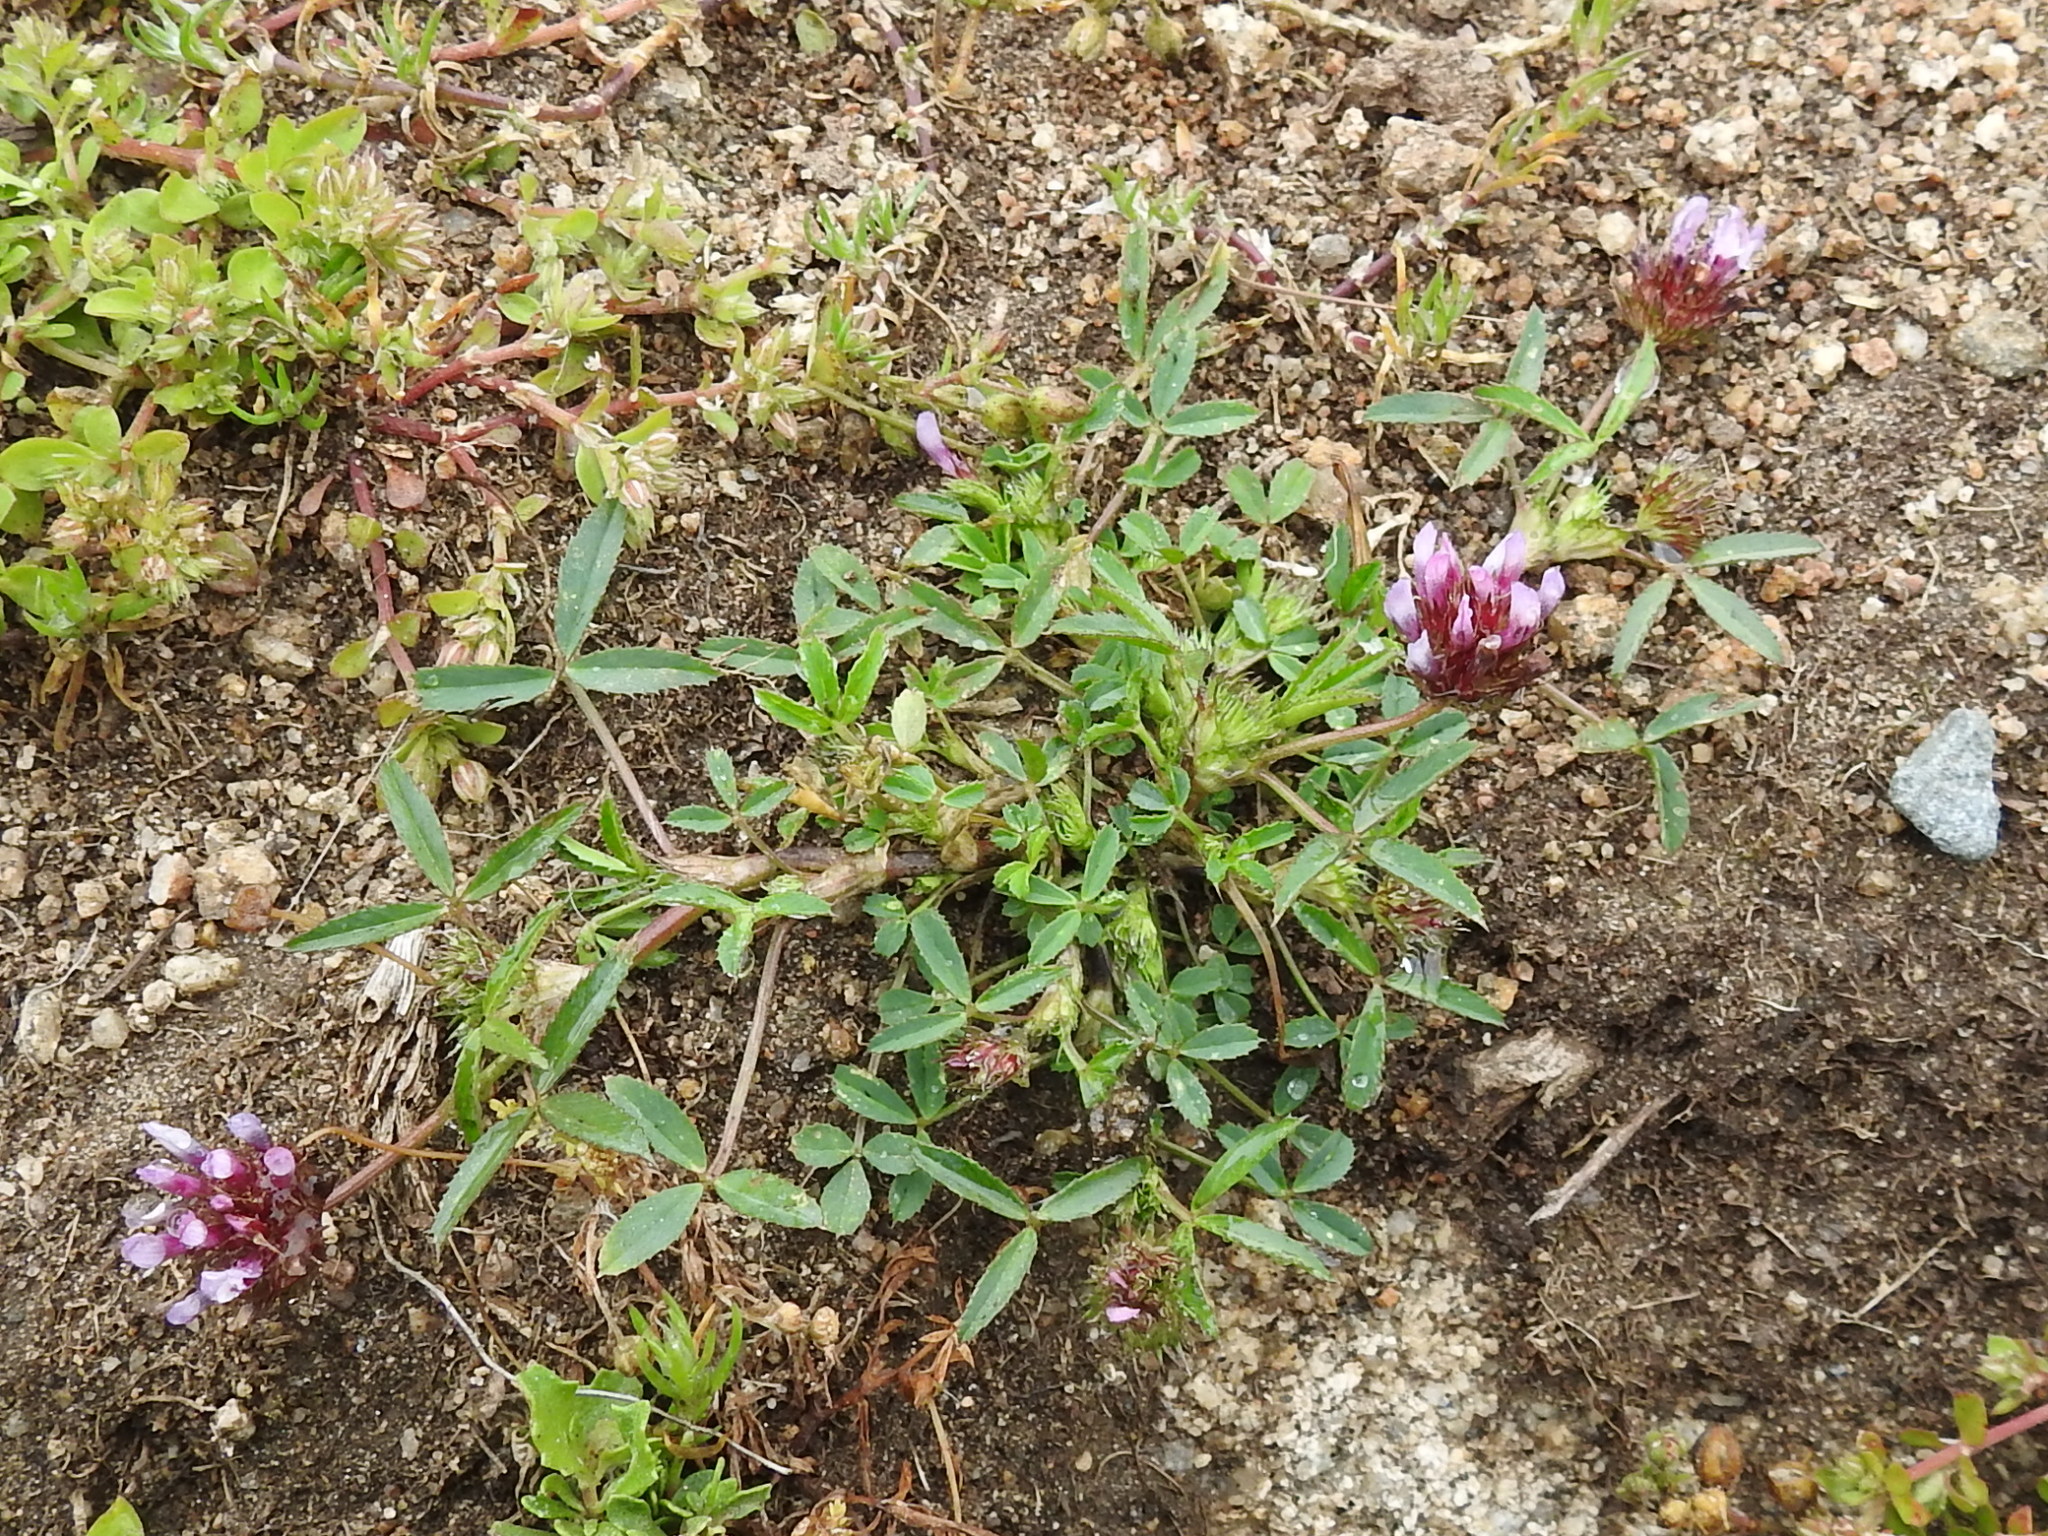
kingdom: Plantae
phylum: Tracheophyta
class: Magnoliopsida
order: Fabales
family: Fabaceae
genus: Trifolium
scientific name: Trifolium willdenovii
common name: Tomcat clover
